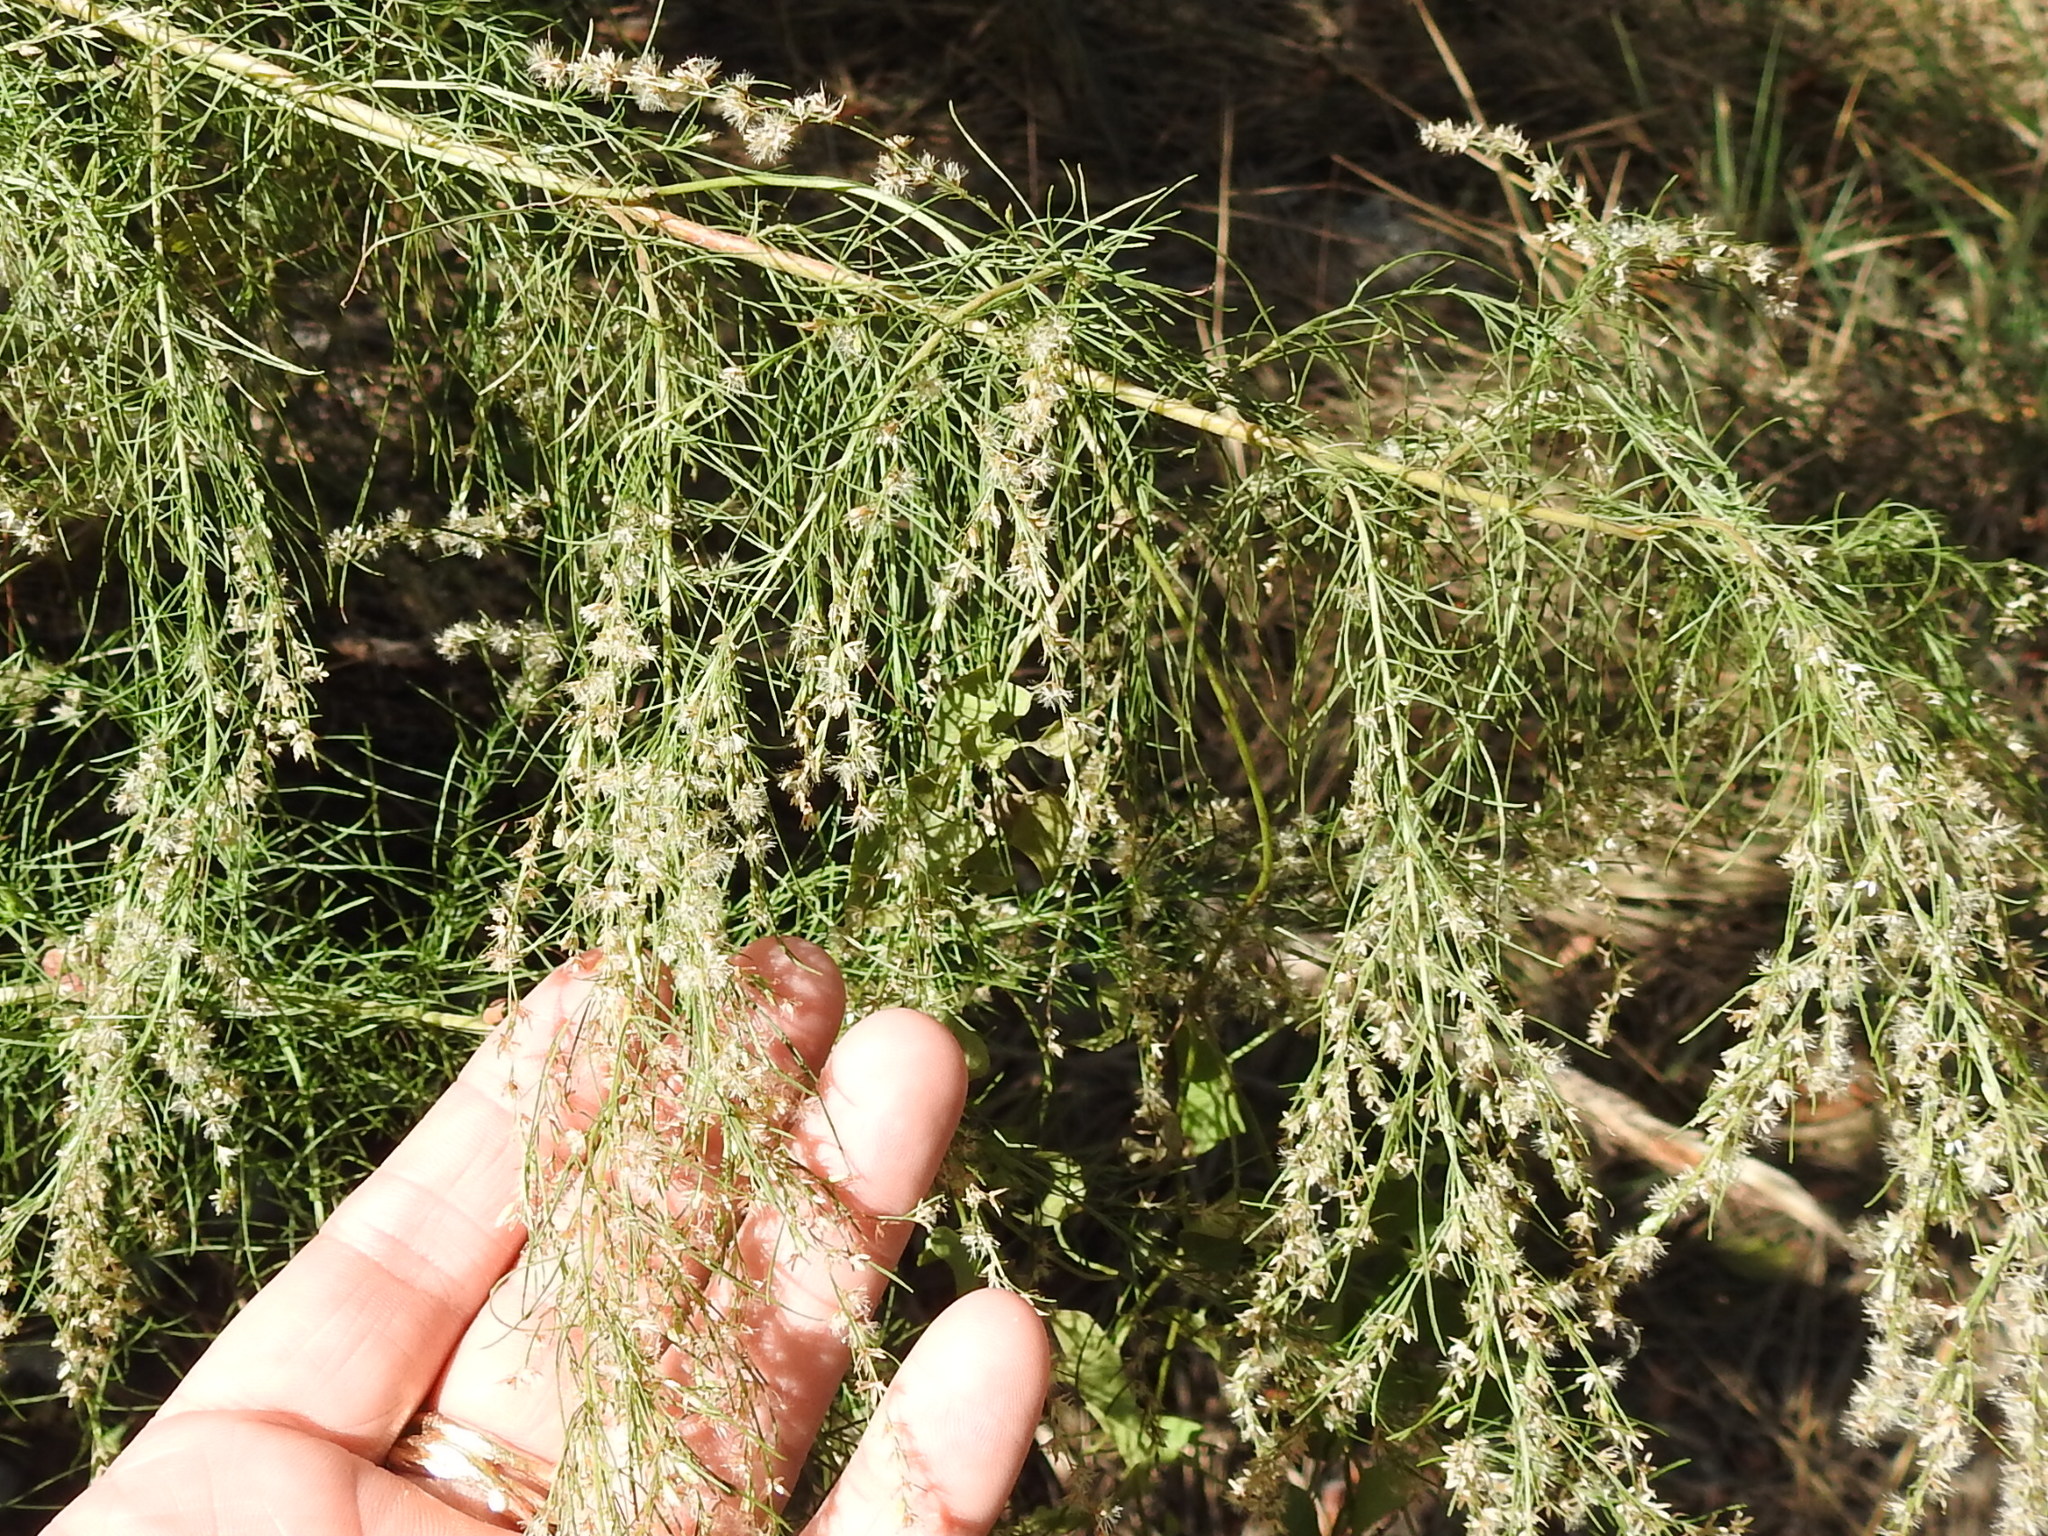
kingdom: Plantae
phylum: Tracheophyta
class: Magnoliopsida
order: Asterales
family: Asteraceae
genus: Eupatorium
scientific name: Eupatorium capillifolium
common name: Dog-fennel
